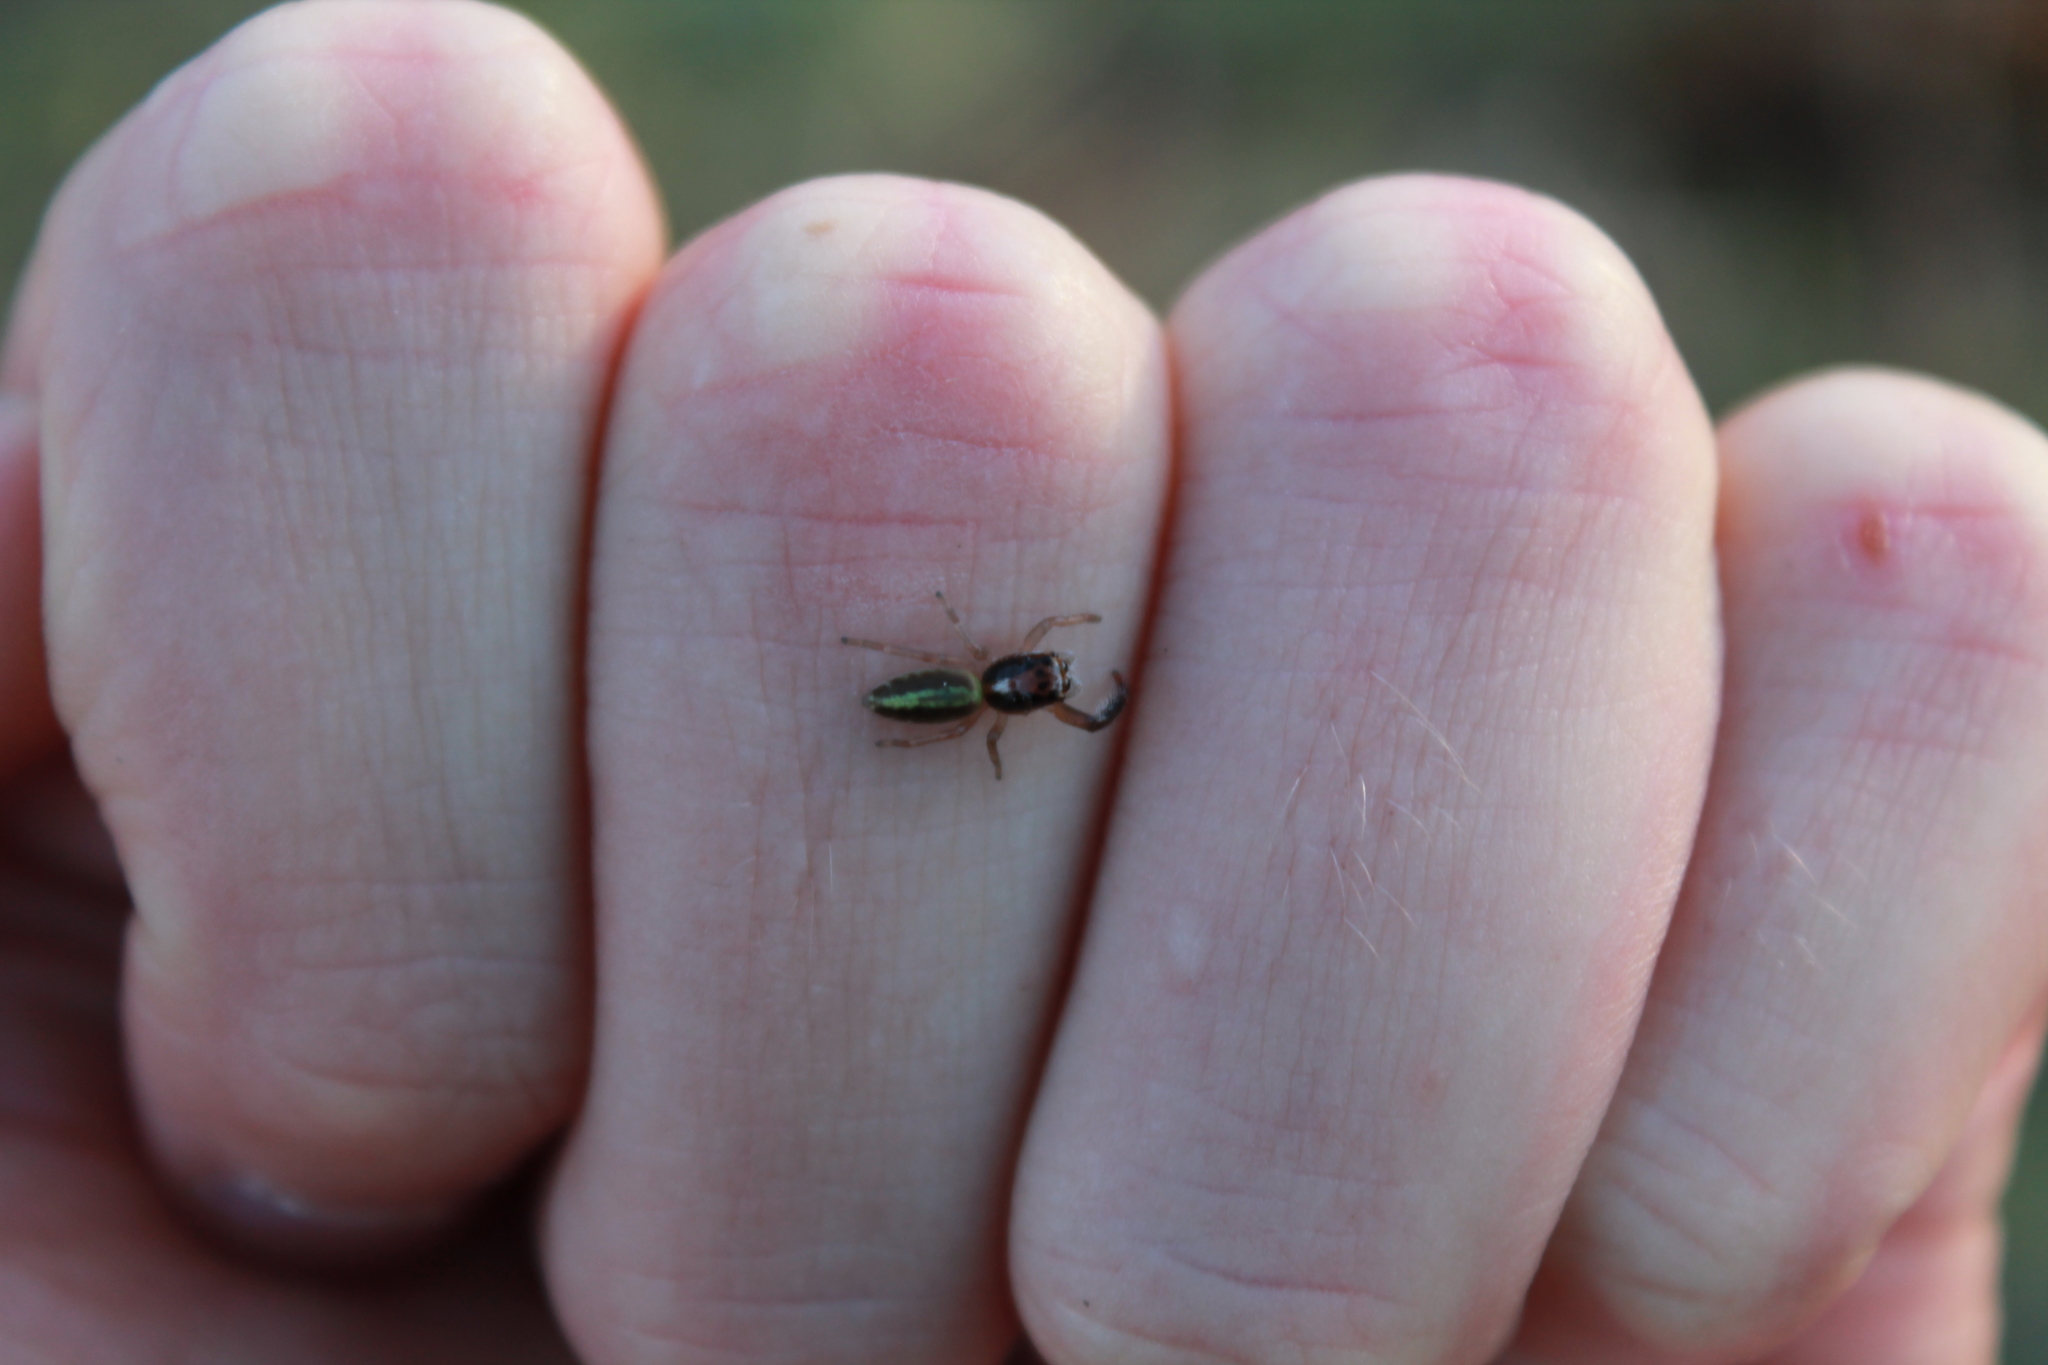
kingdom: Animalia
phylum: Arthropoda
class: Arachnida
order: Araneae
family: Salticidae
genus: Trite
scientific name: Trite planiceps
